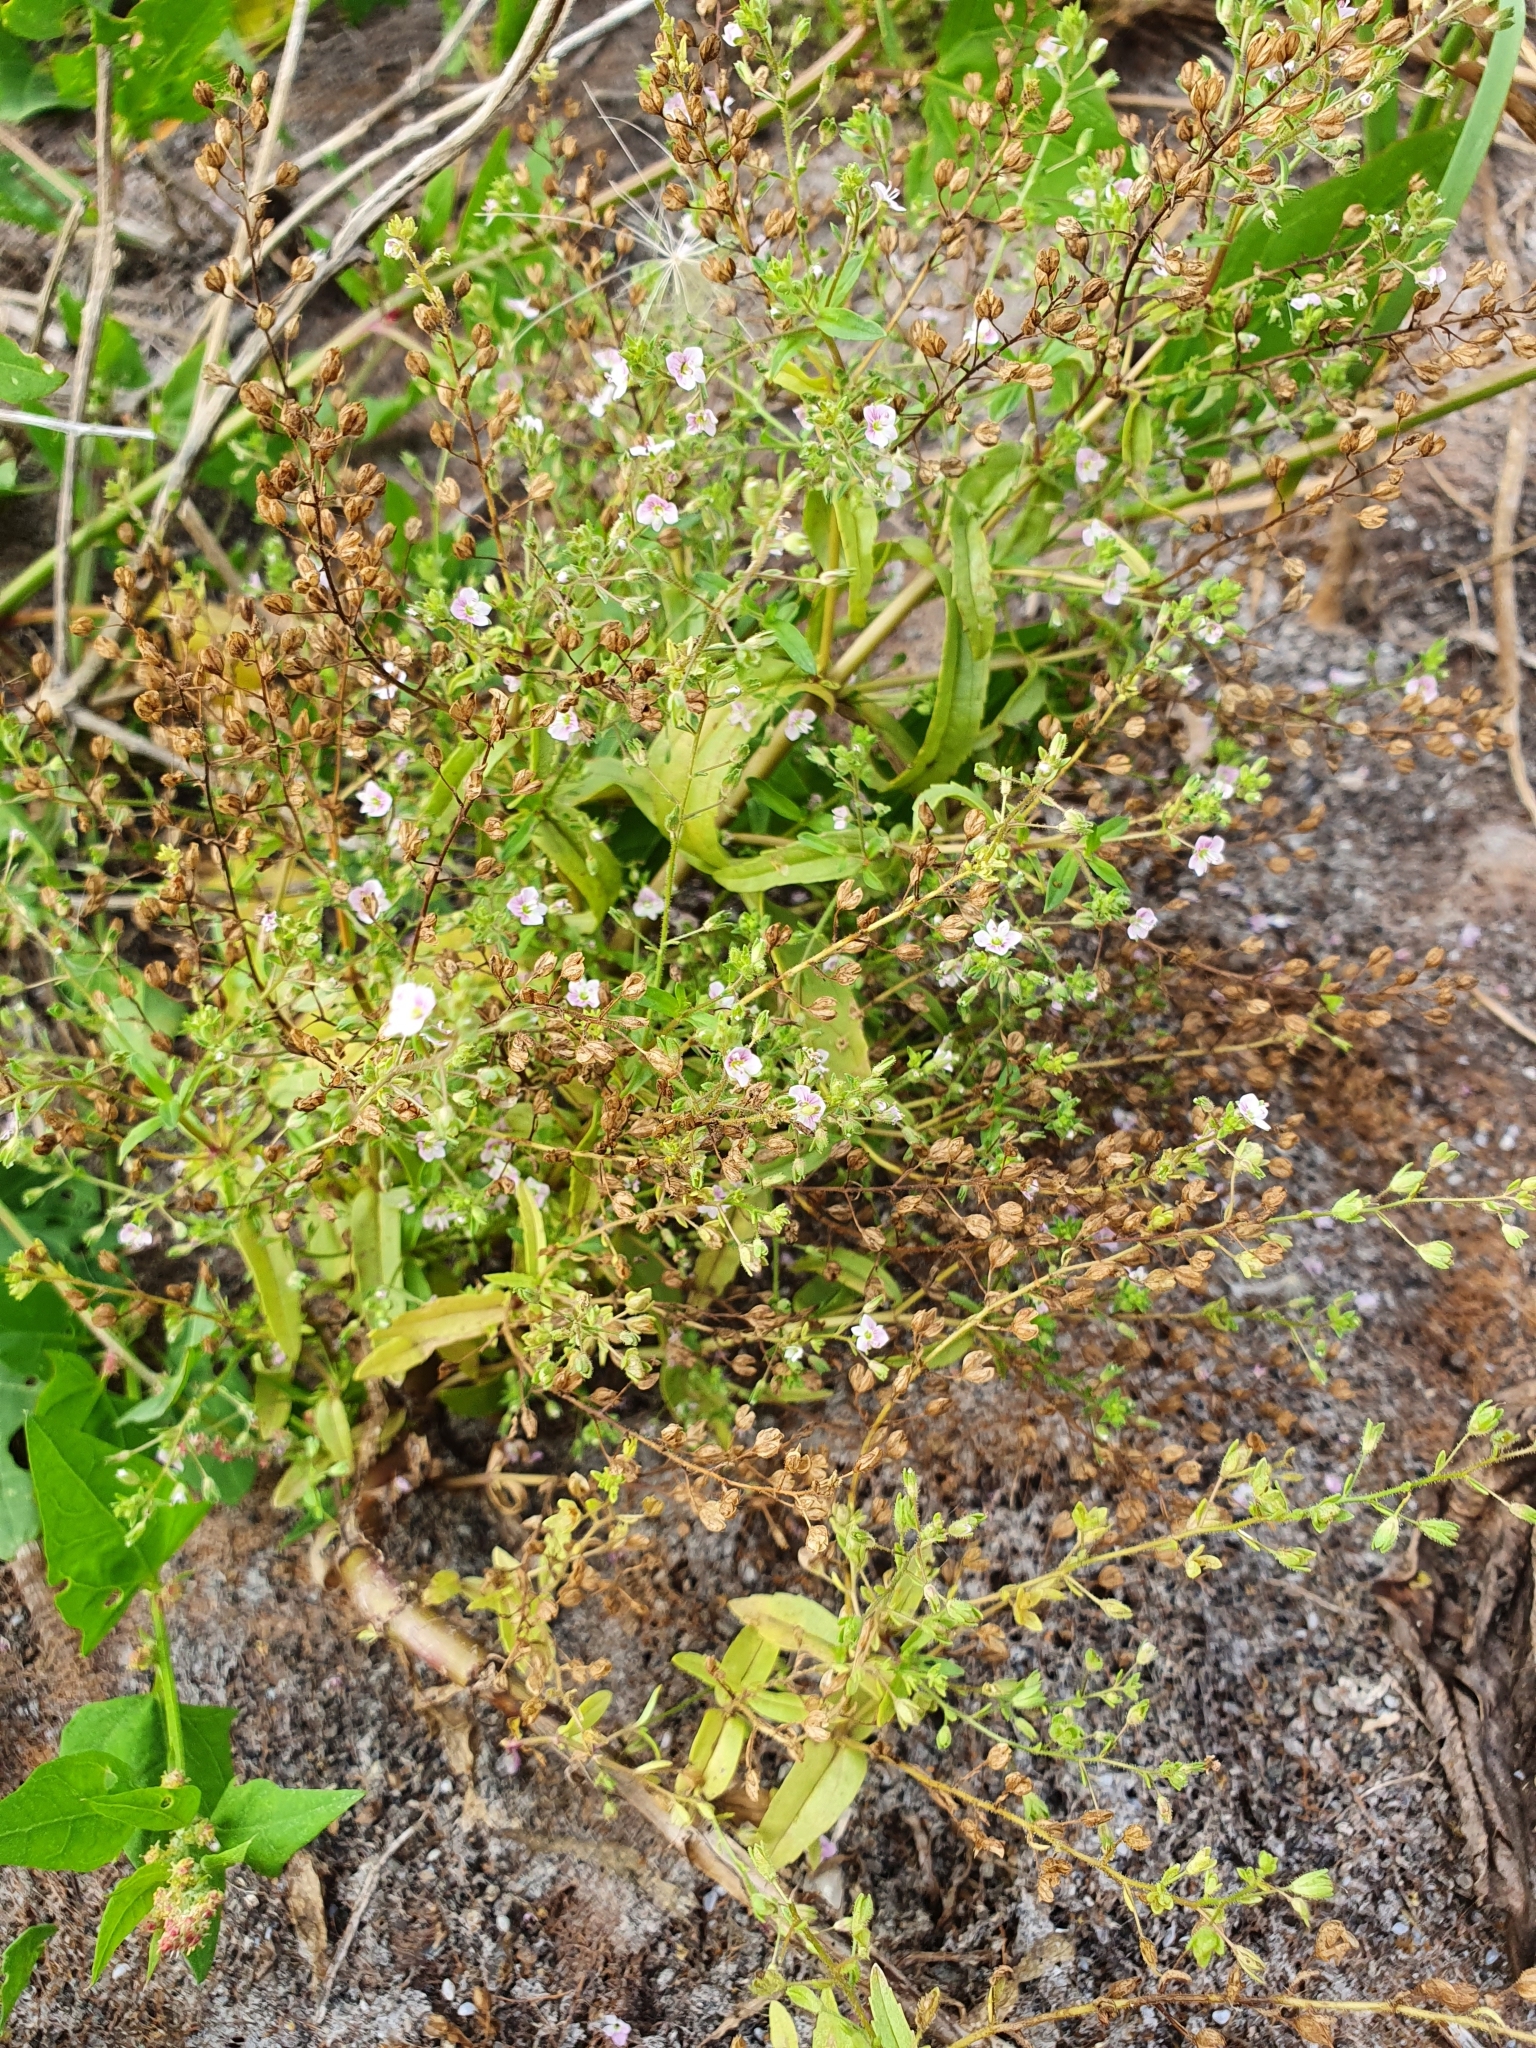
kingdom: Plantae
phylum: Tracheophyta
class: Magnoliopsida
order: Lamiales
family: Plantaginaceae
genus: Veronica
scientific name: Veronica anagallis-aquatica
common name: Water speedwell
